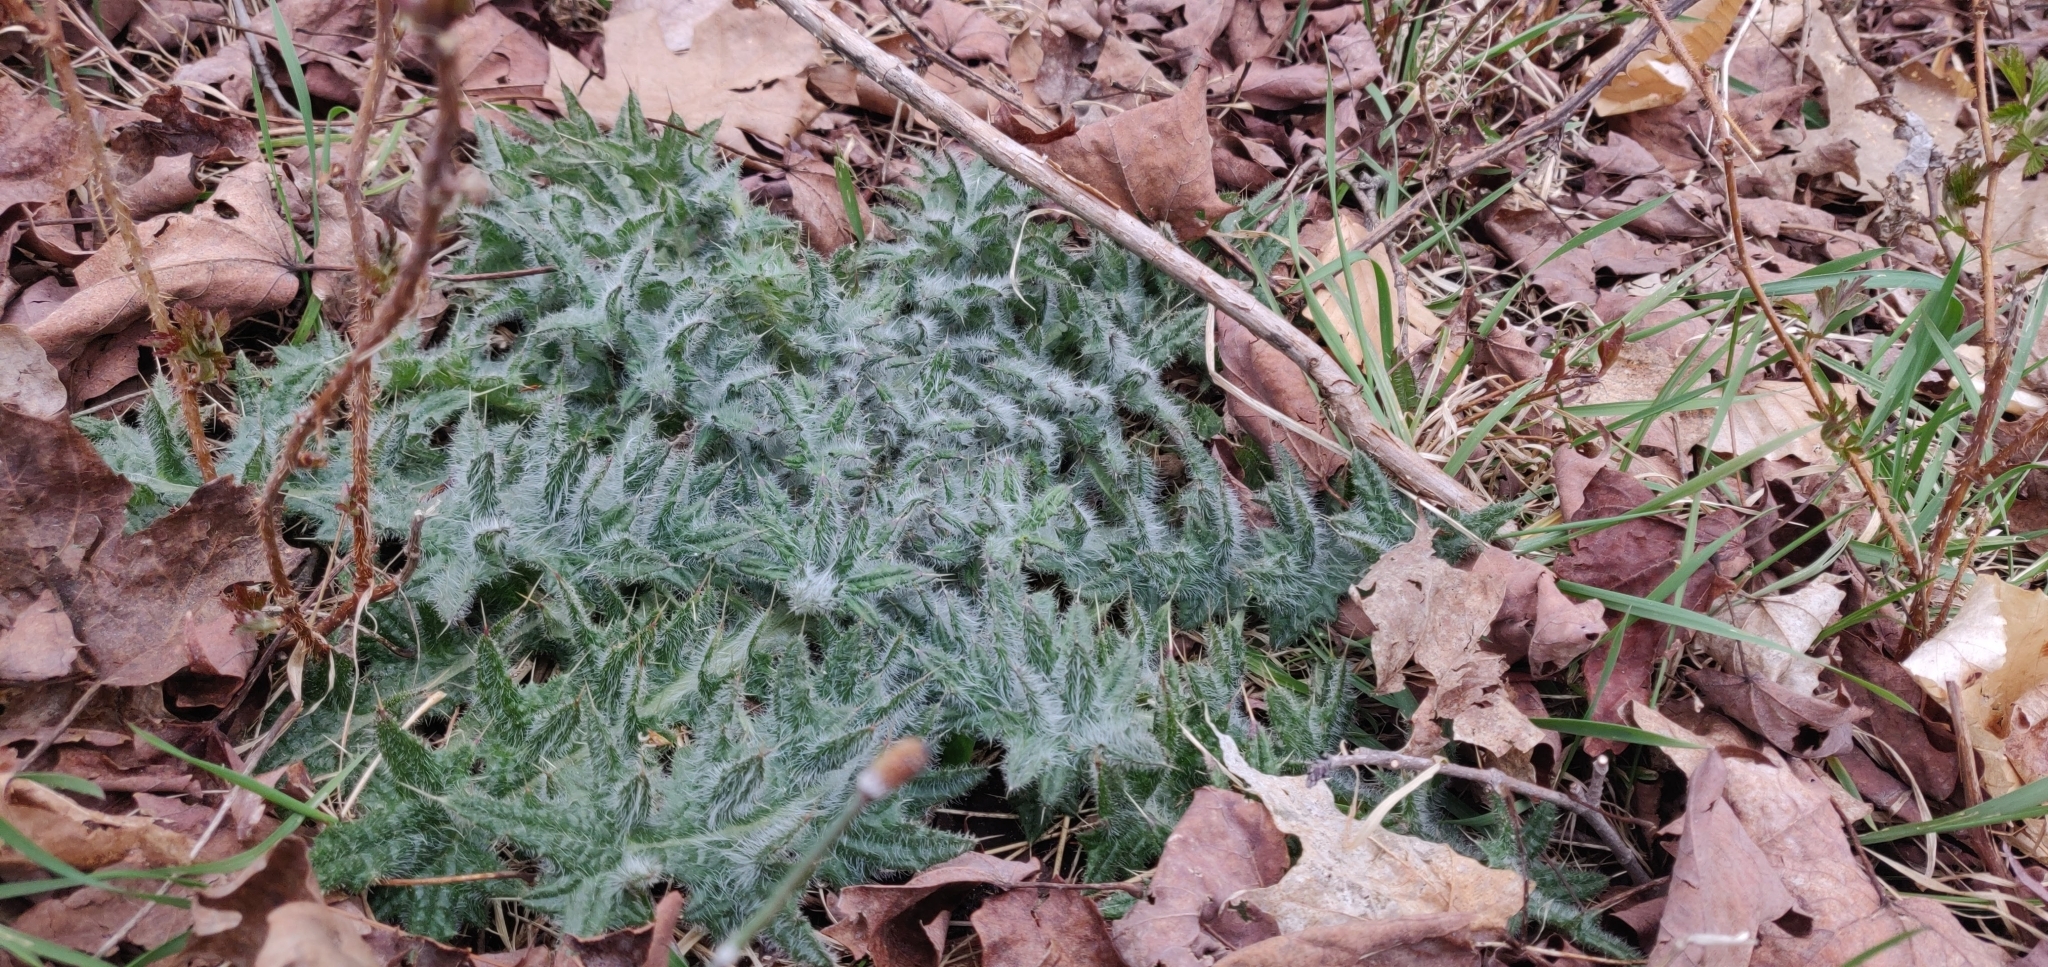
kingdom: Plantae
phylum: Tracheophyta
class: Magnoliopsida
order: Asterales
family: Asteraceae
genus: Cirsium
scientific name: Cirsium vulgare
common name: Bull thistle
